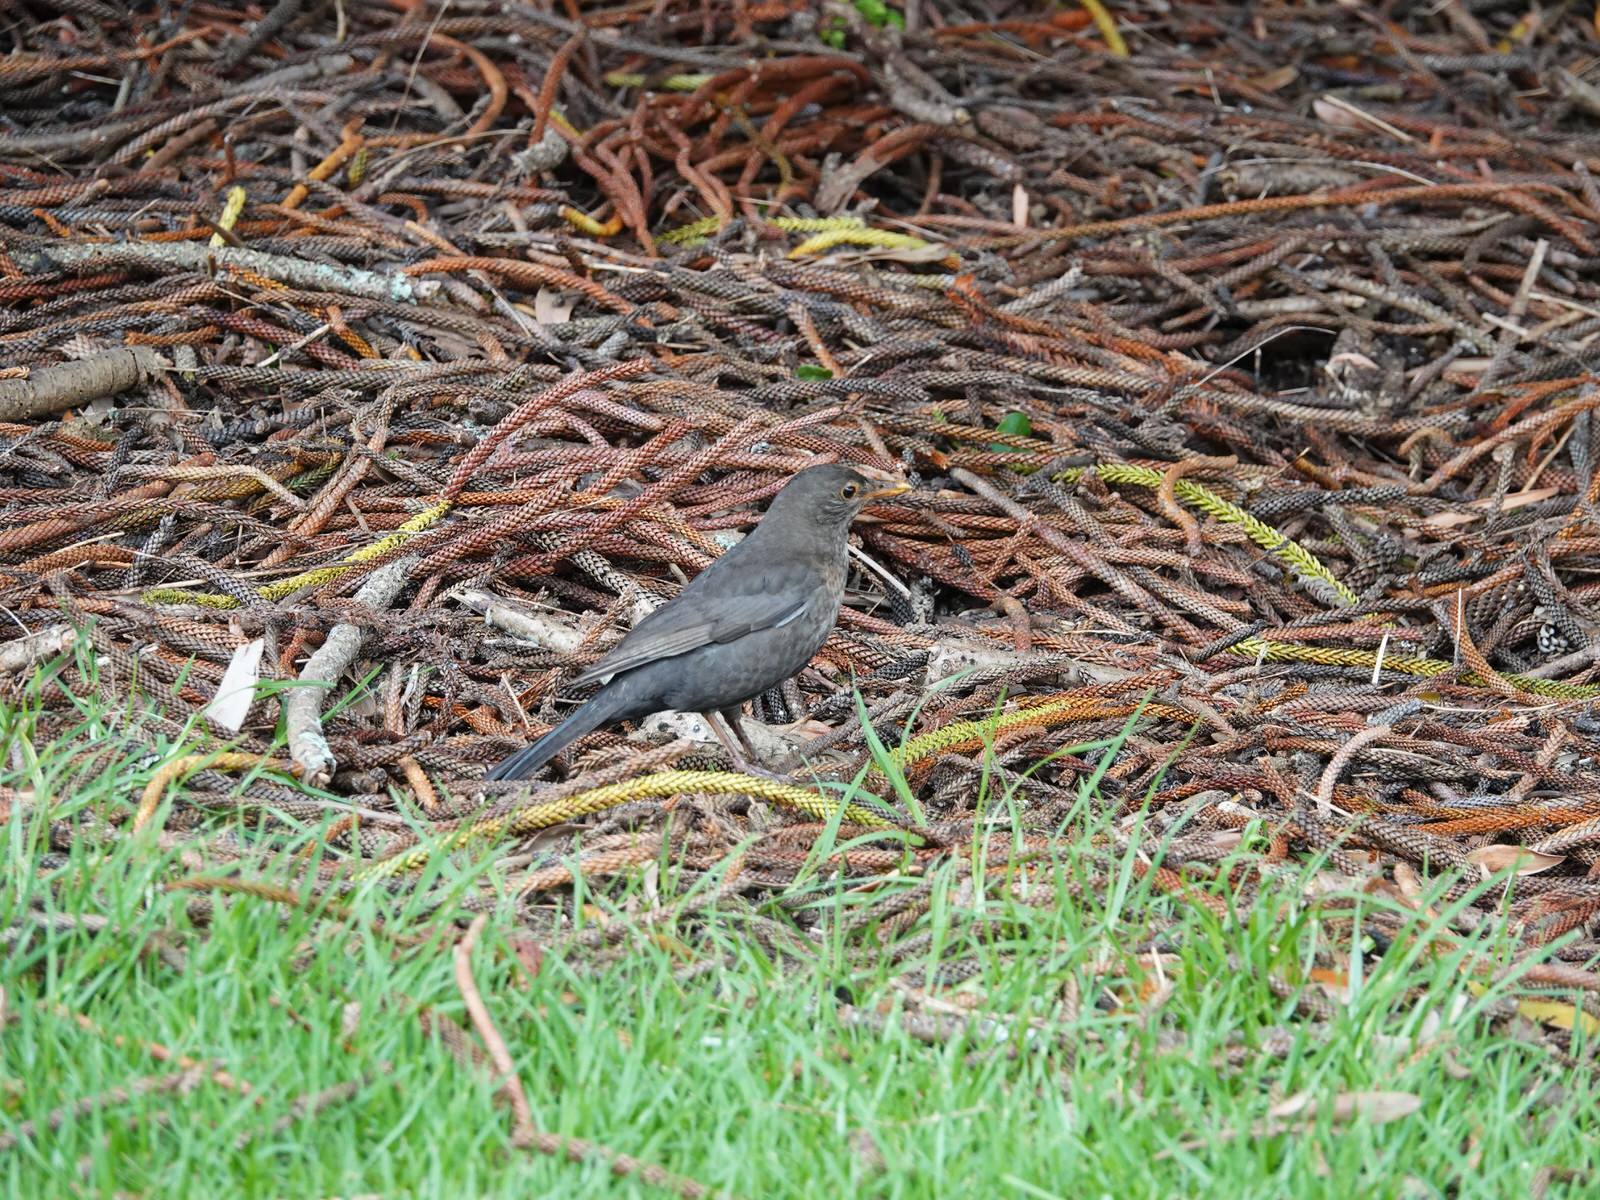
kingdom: Animalia
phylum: Chordata
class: Aves
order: Passeriformes
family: Turdidae
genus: Turdus
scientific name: Turdus merula
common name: Common blackbird
